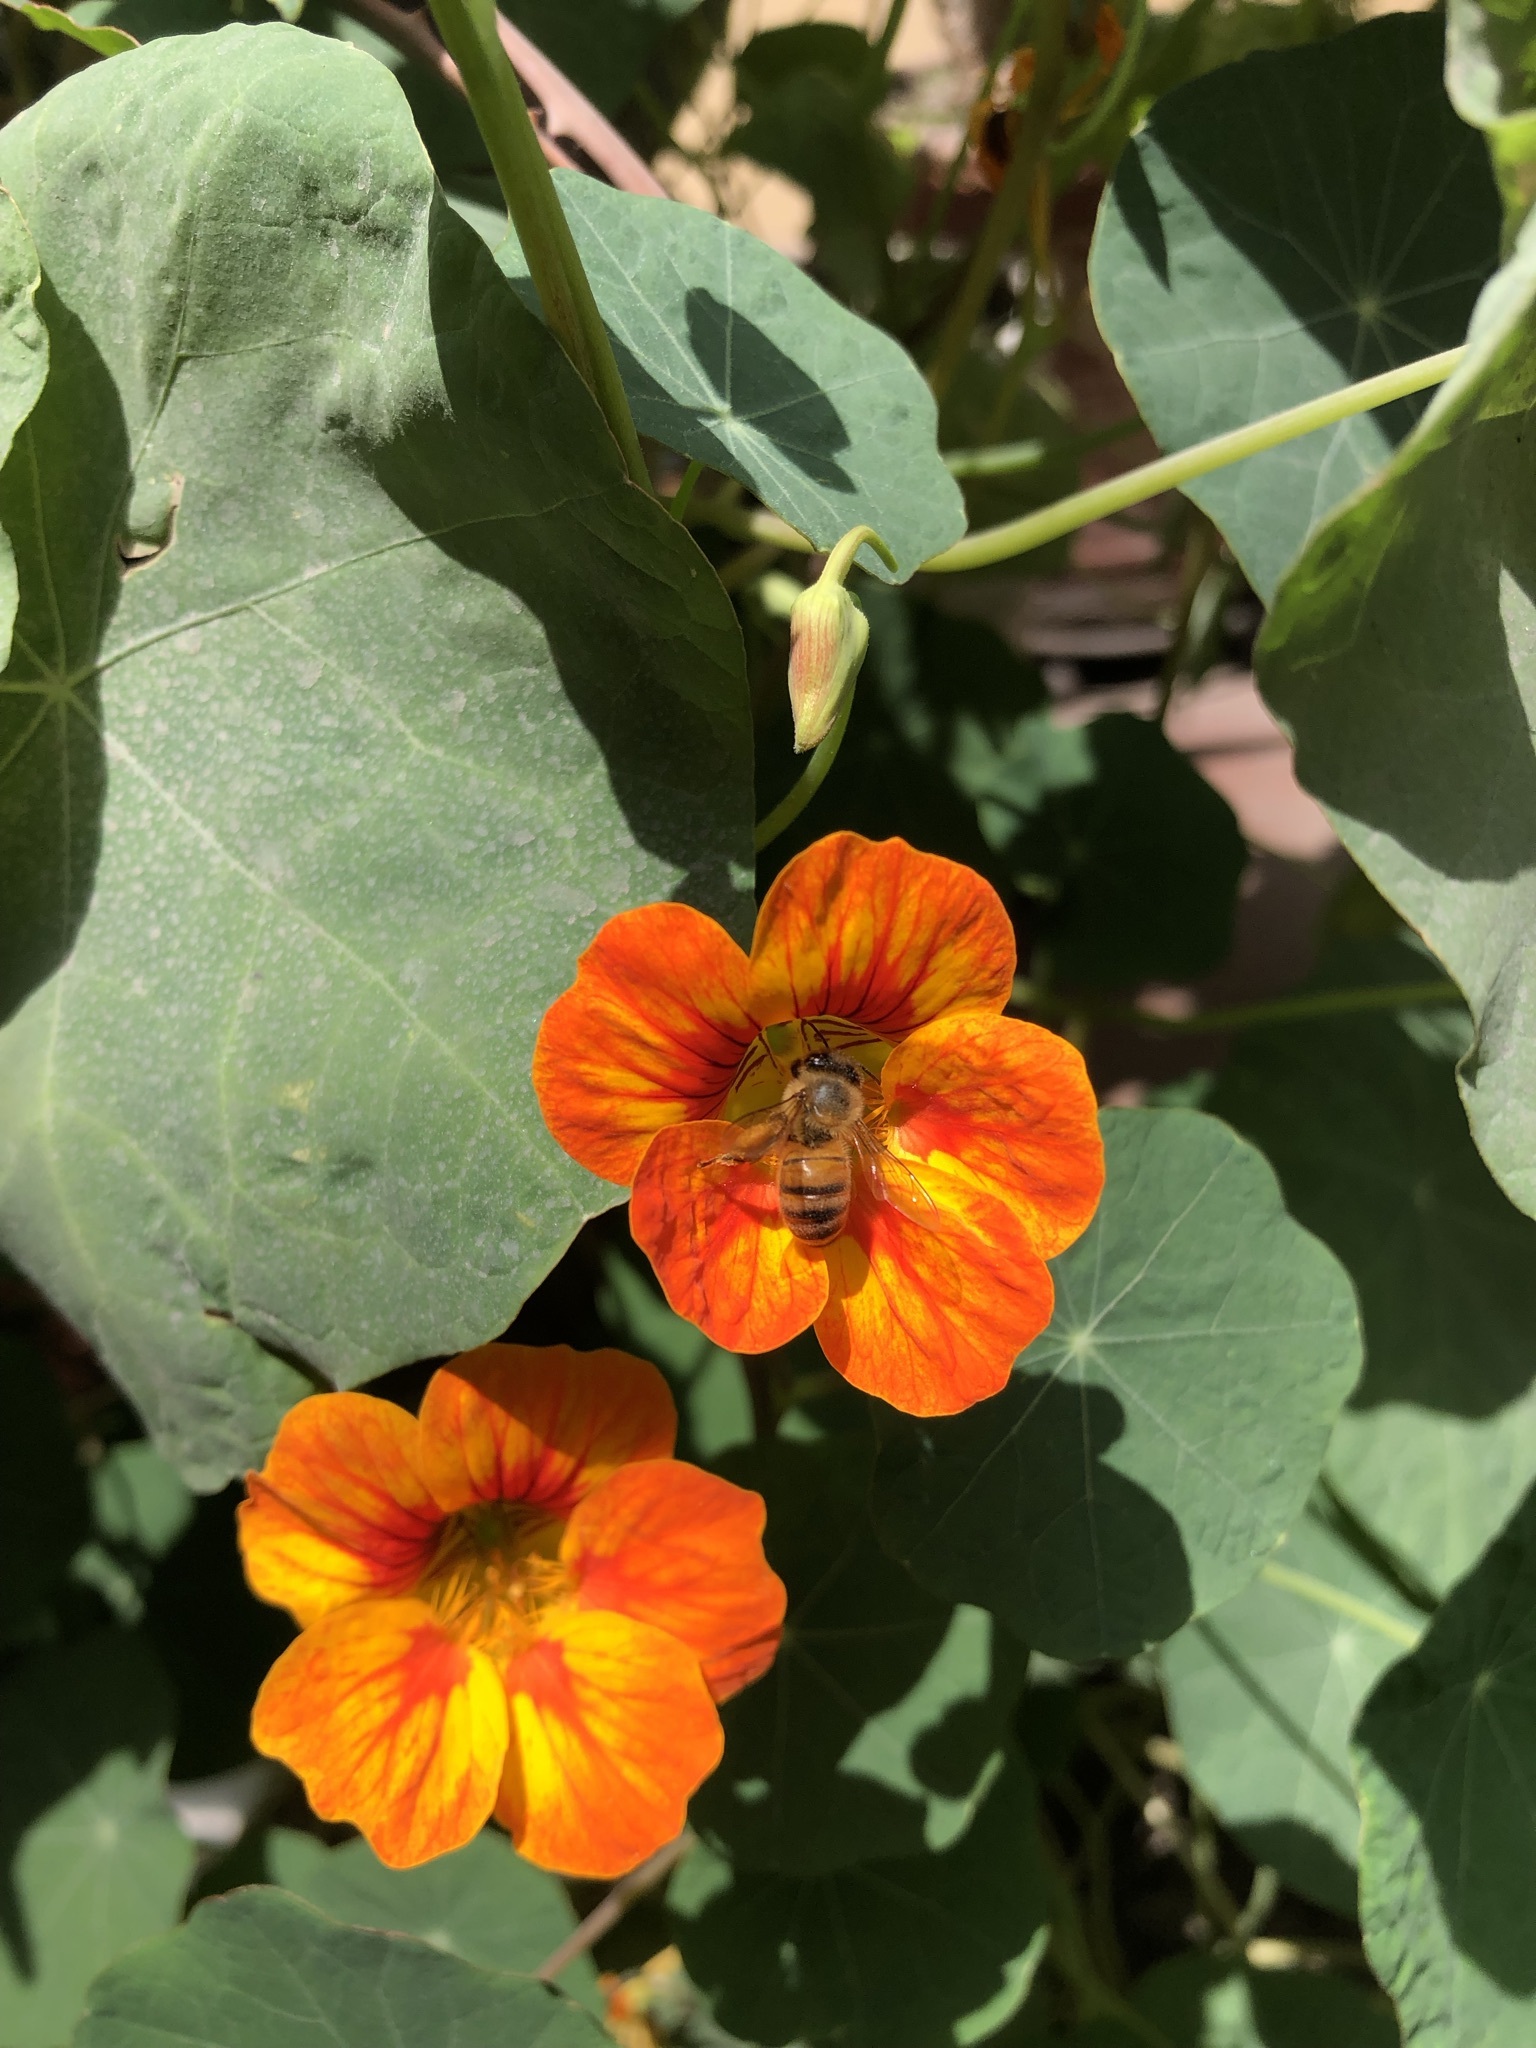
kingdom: Animalia
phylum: Arthropoda
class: Insecta
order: Hymenoptera
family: Apidae
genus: Apis
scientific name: Apis mellifera
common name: Honey bee
